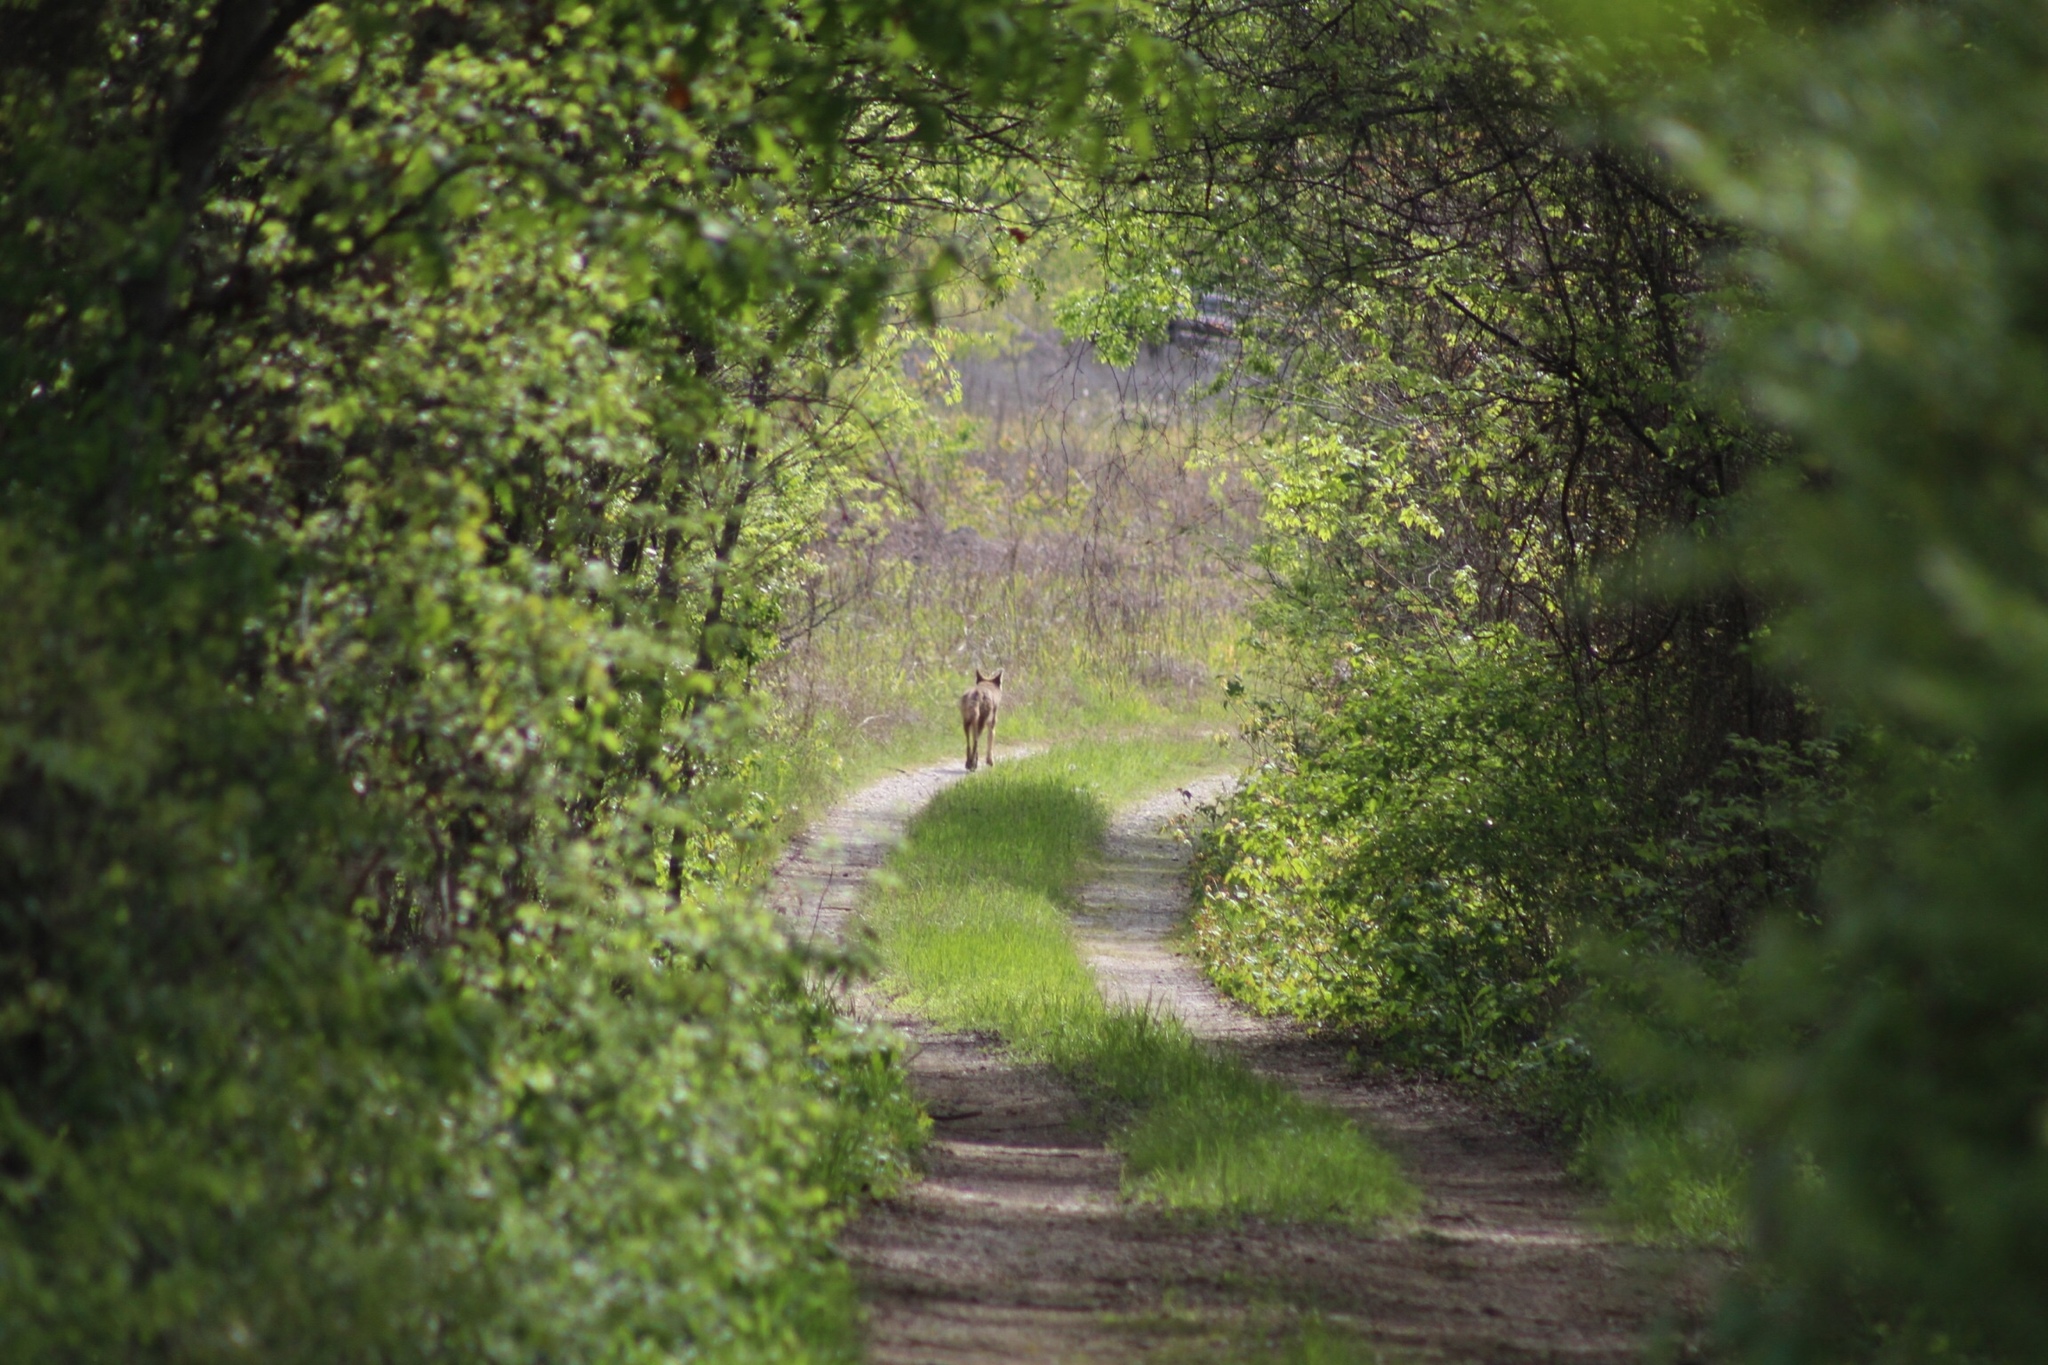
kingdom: Animalia
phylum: Chordata
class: Mammalia
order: Carnivora
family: Canidae
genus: Canis
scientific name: Canis latrans
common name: Coyote
